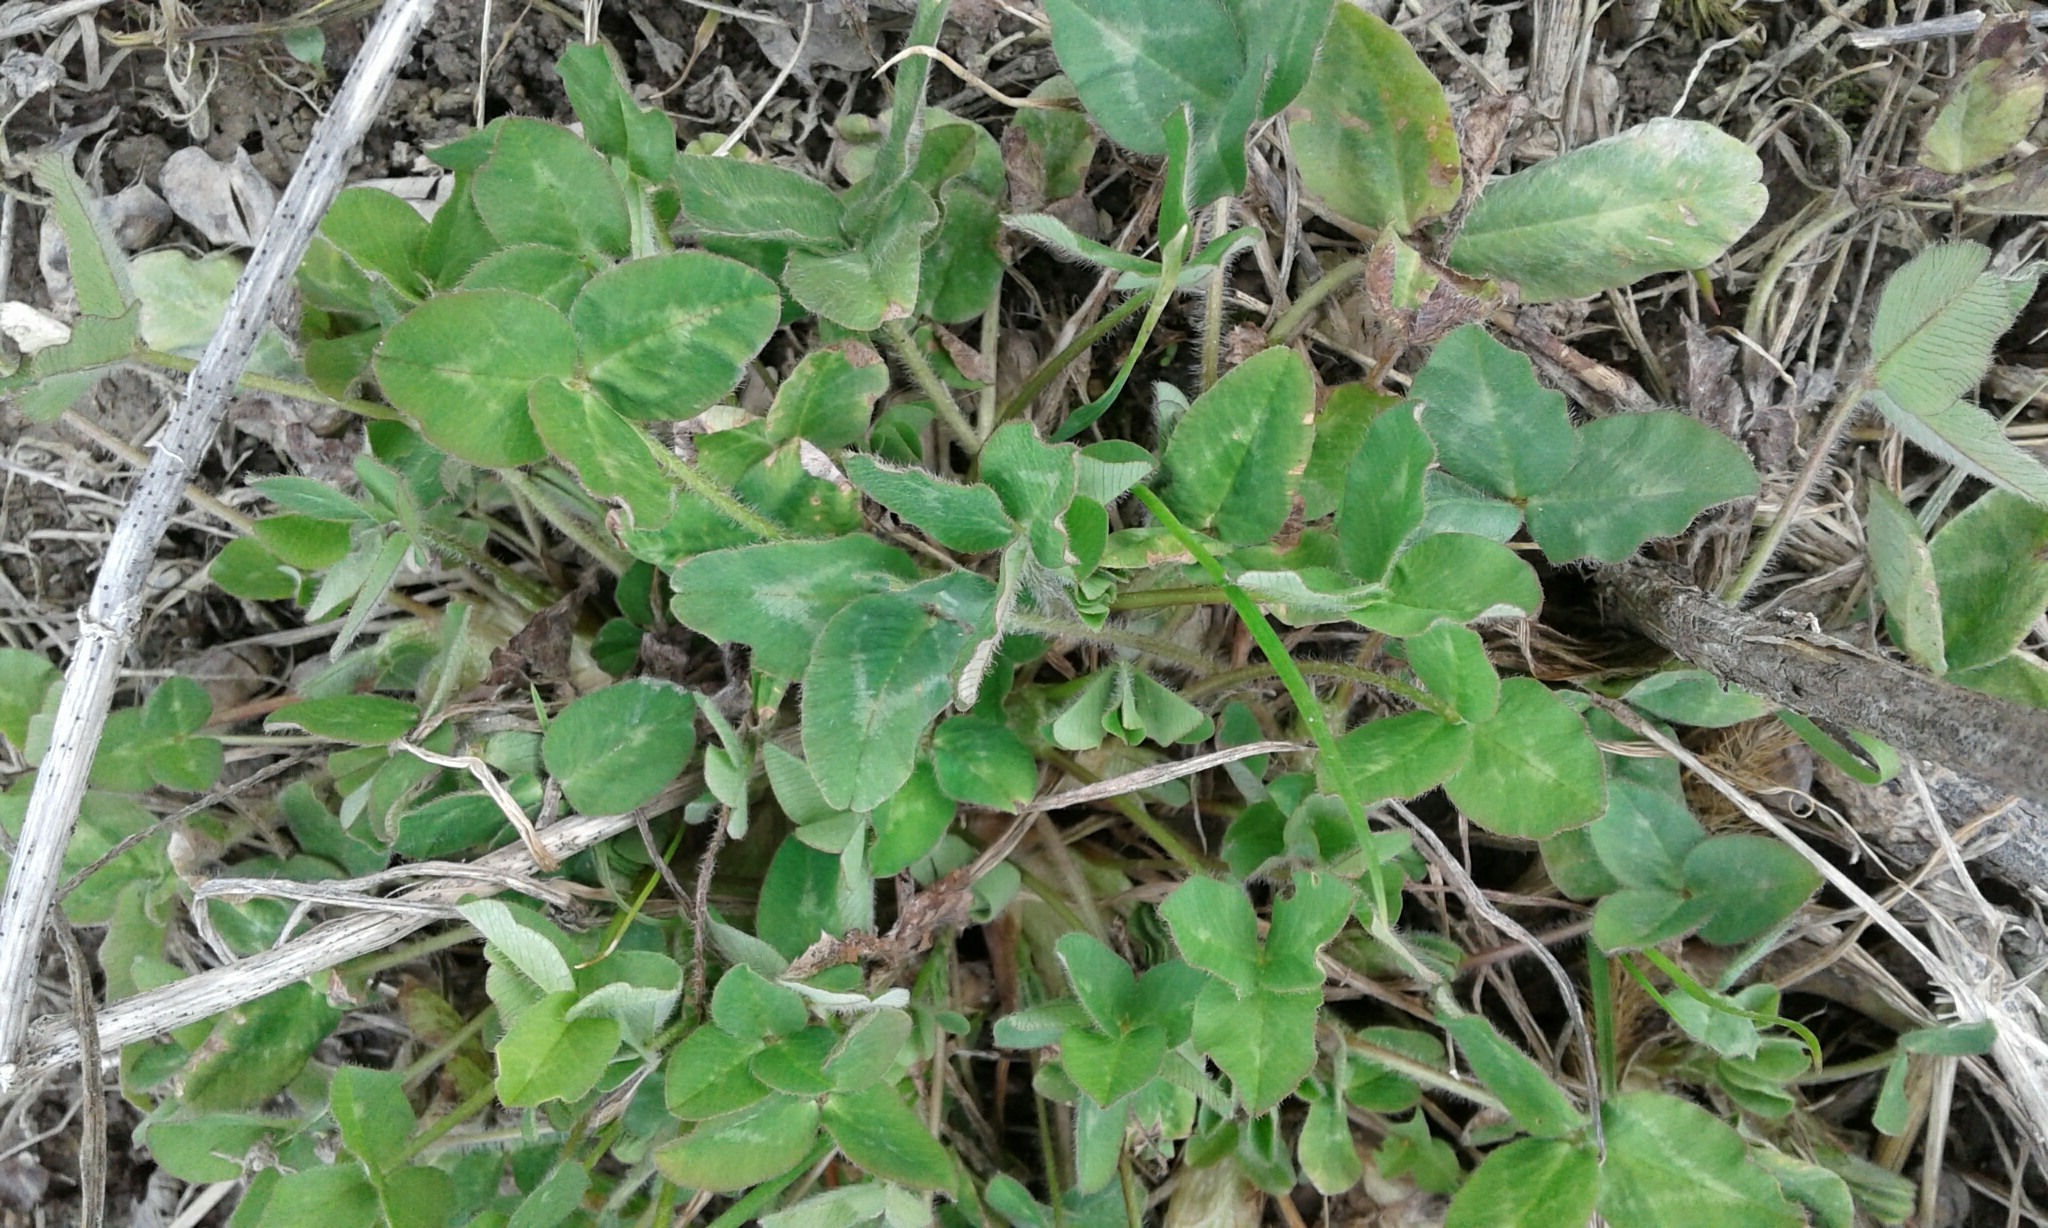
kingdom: Plantae
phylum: Tracheophyta
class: Magnoliopsida
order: Fabales
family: Fabaceae
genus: Trifolium
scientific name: Trifolium pratense
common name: Red clover
